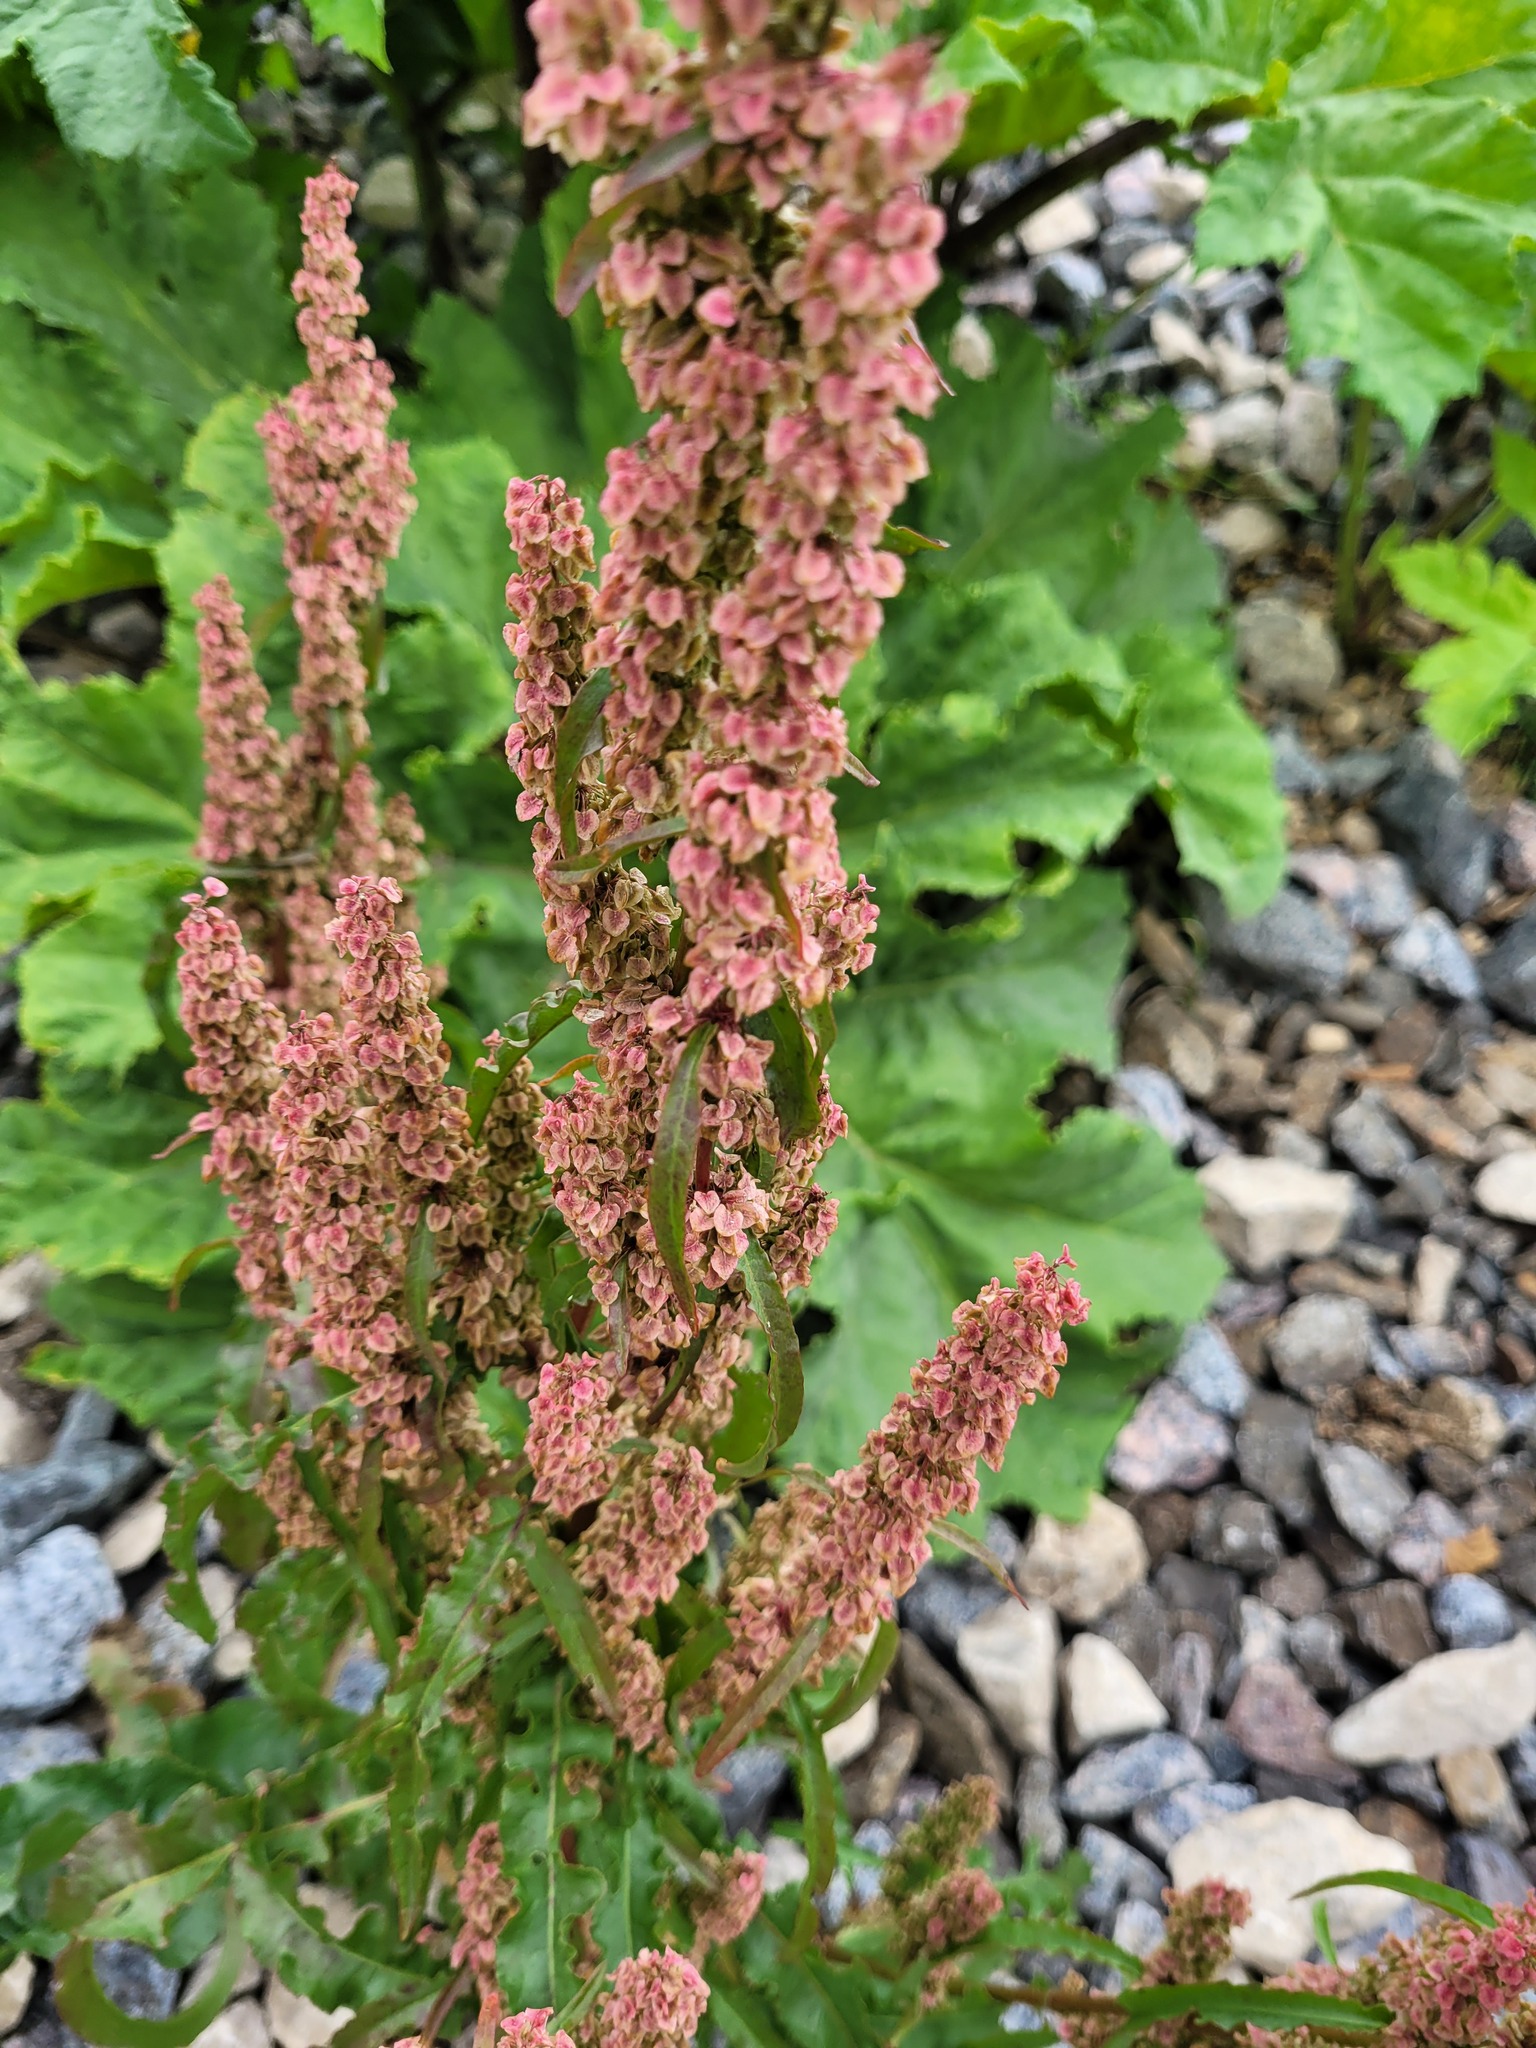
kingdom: Plantae
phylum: Tracheophyta
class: Magnoliopsida
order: Caryophyllales
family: Polygonaceae
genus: Rumex
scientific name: Rumex pseudonatronatus
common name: Field dock
